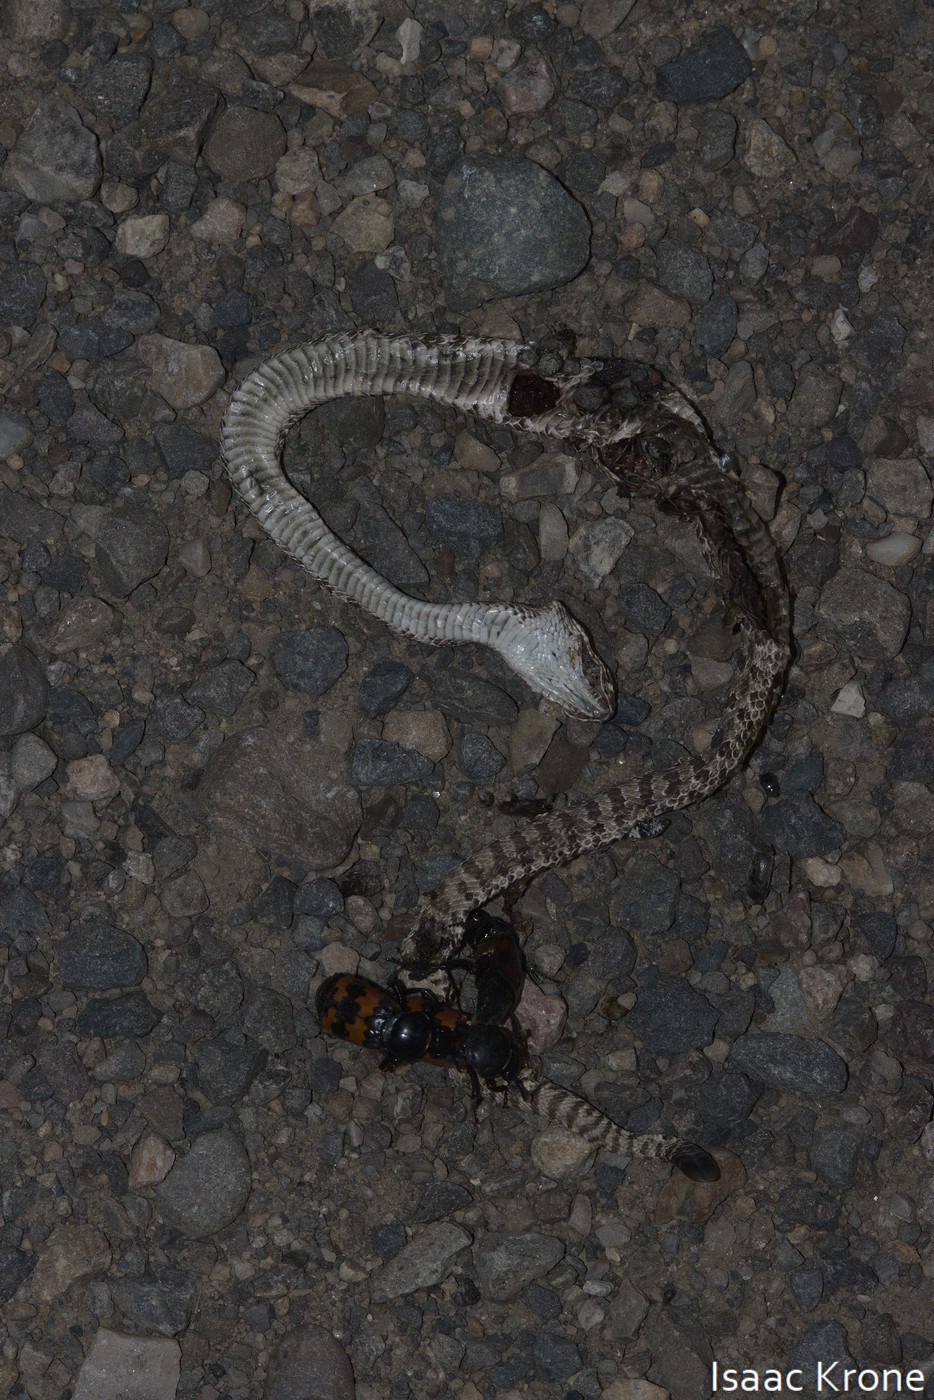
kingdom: Animalia
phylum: Chordata
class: Squamata
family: Viperidae
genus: Crotalus
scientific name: Crotalus viridis
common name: Prairie rattlesnake
